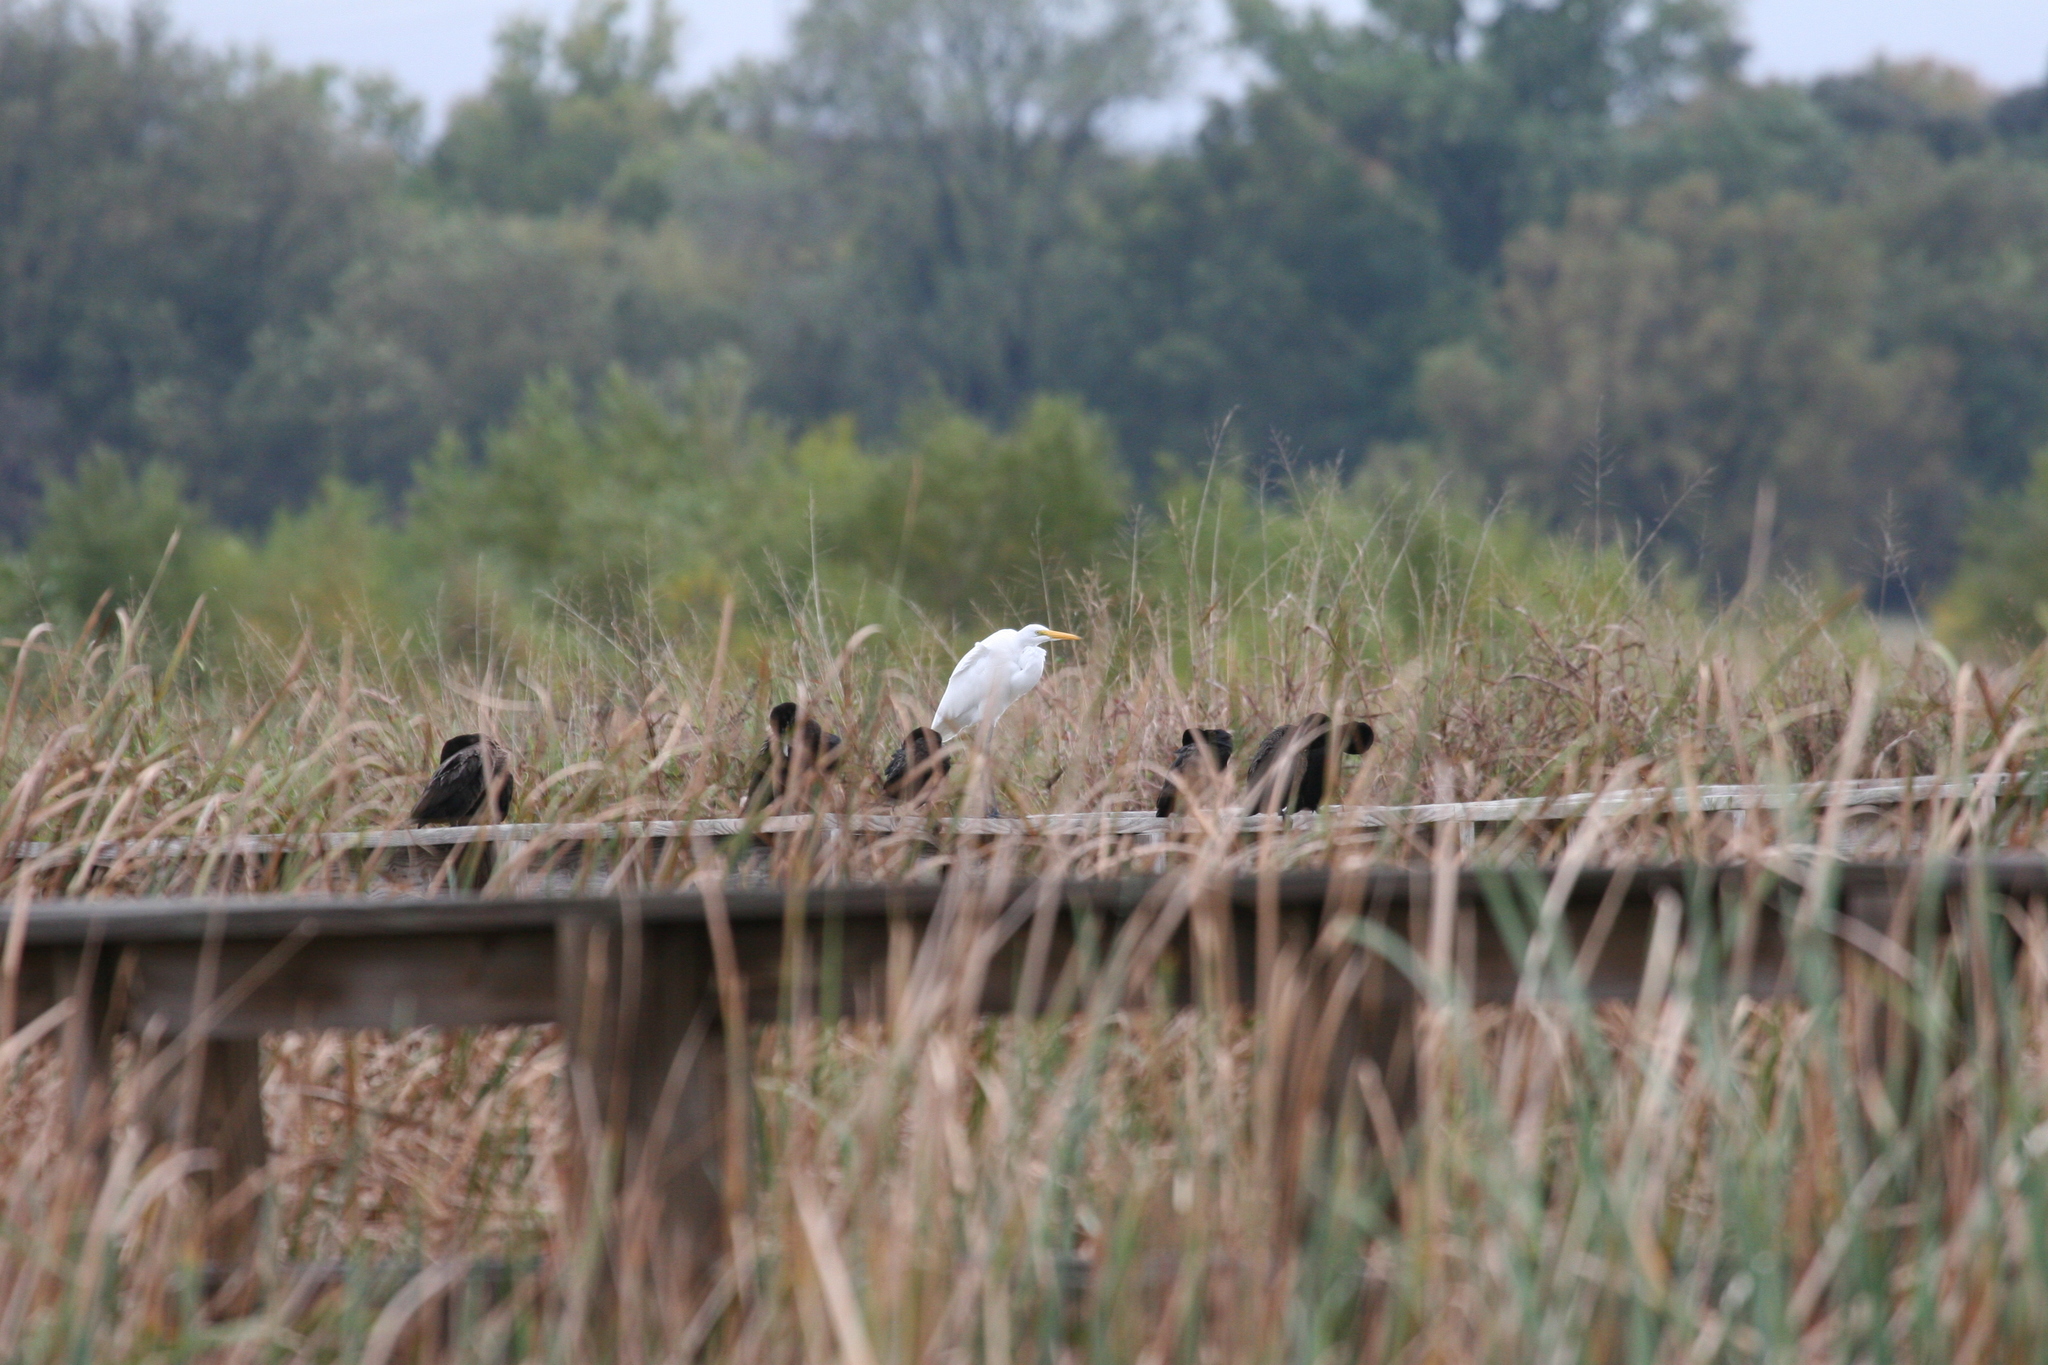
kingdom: Animalia
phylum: Chordata
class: Aves
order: Pelecaniformes
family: Ardeidae
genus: Ardea
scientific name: Ardea alba
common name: Great egret
